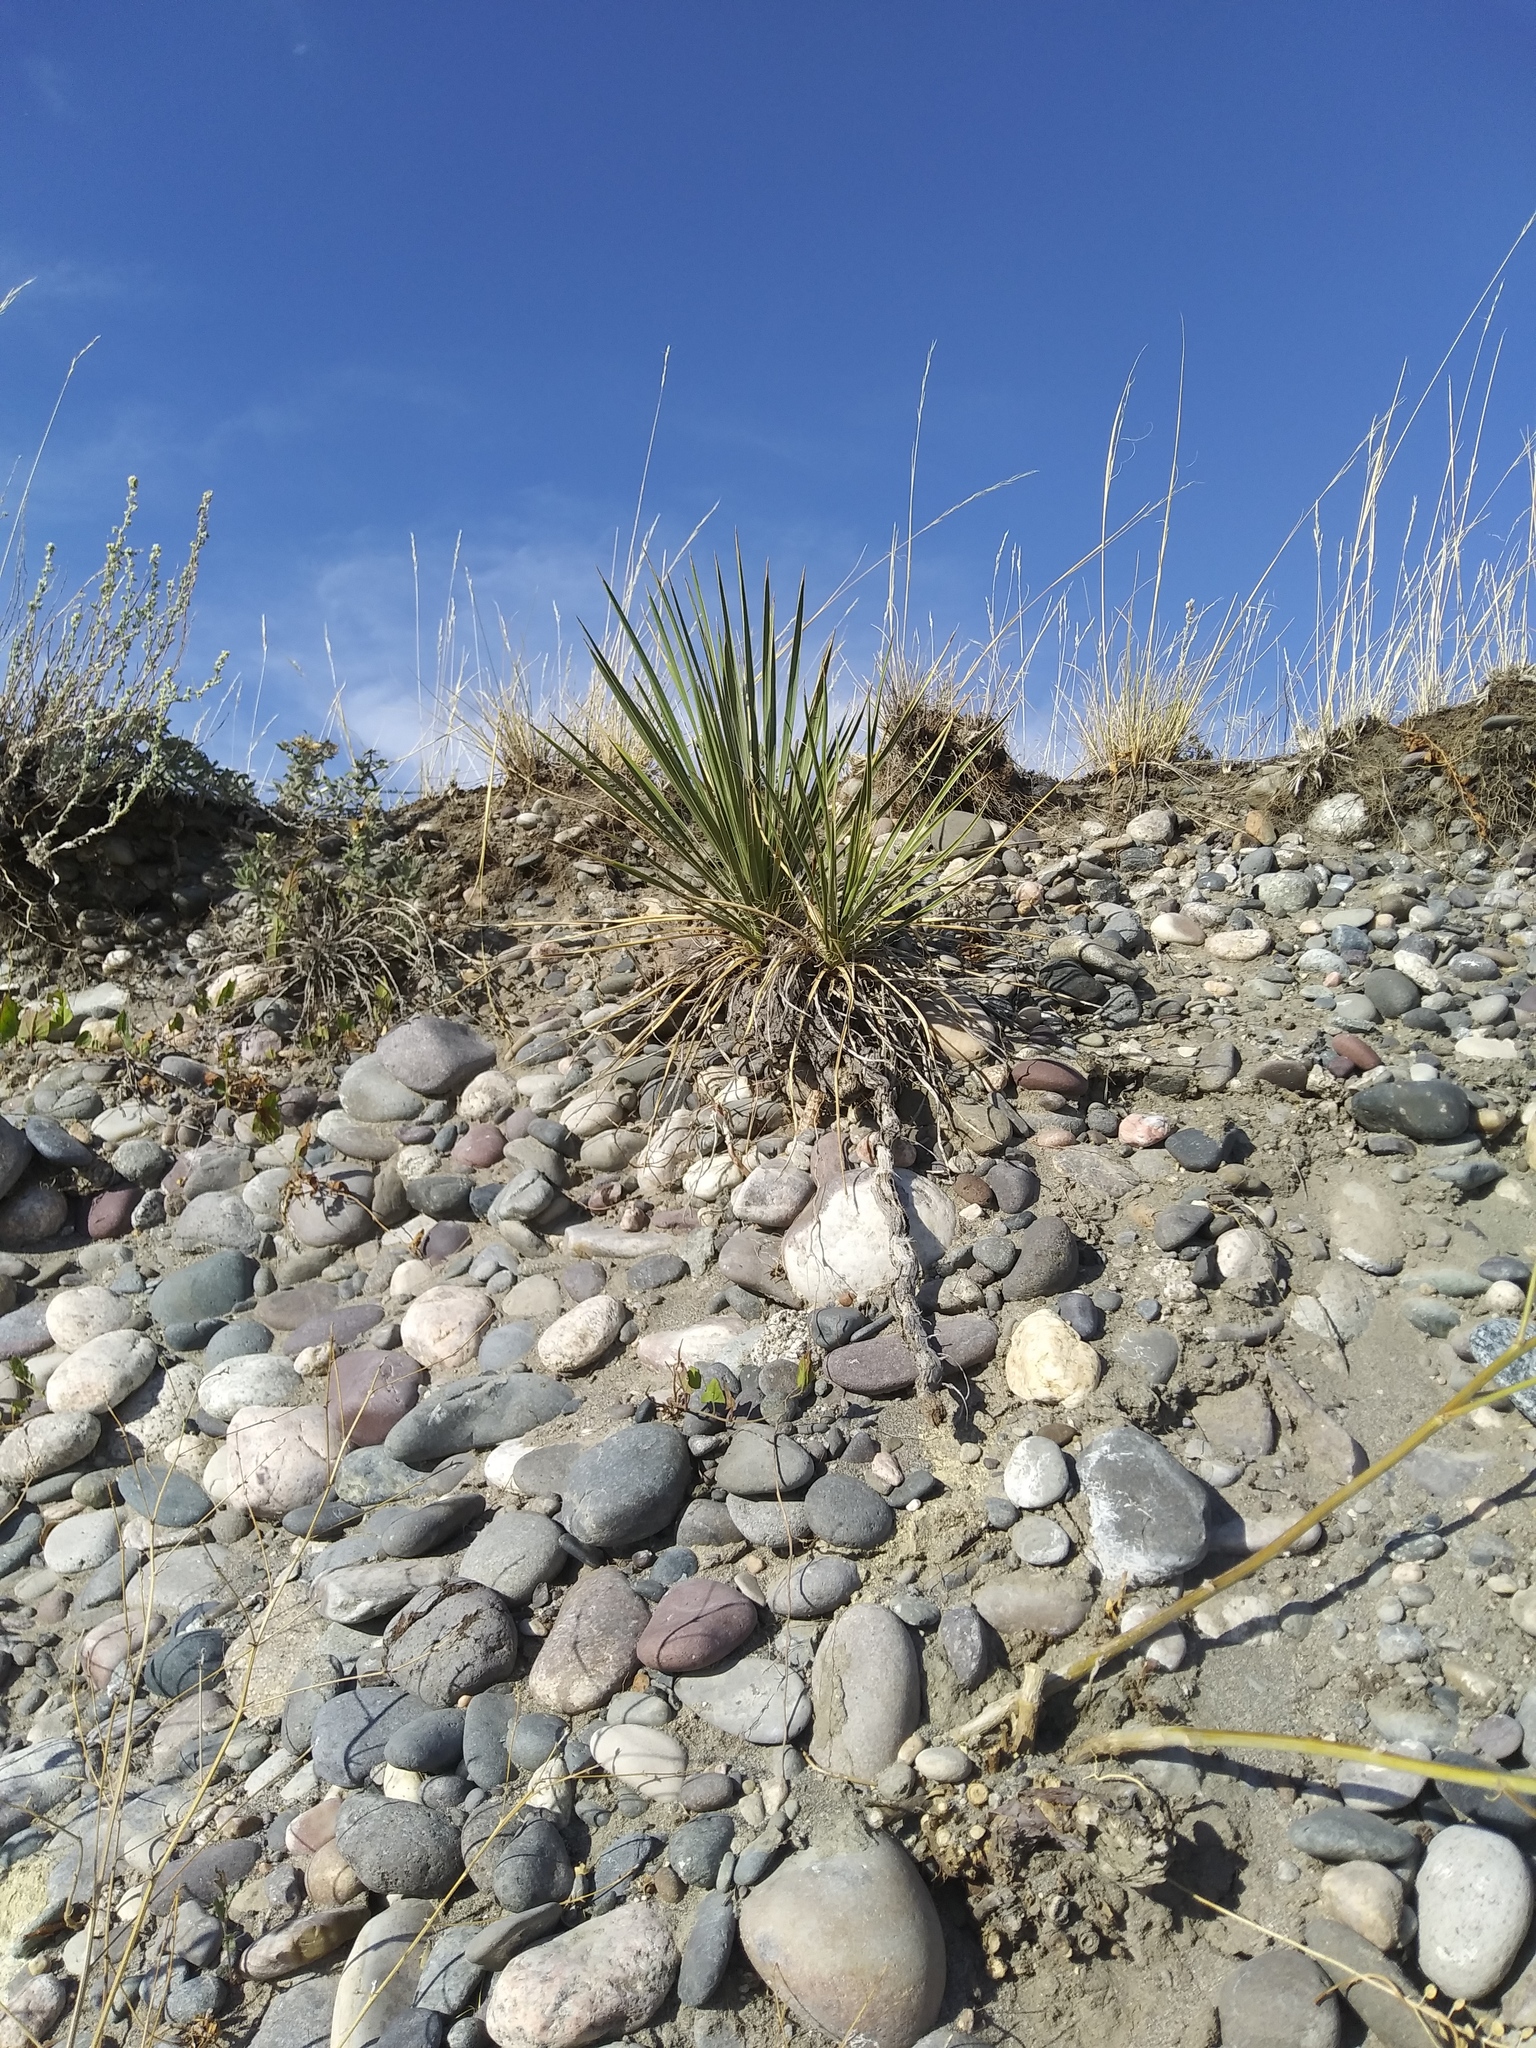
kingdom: Plantae
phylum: Tracheophyta
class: Liliopsida
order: Asparagales
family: Asparagaceae
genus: Yucca
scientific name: Yucca glauca
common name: Great plains yucca
